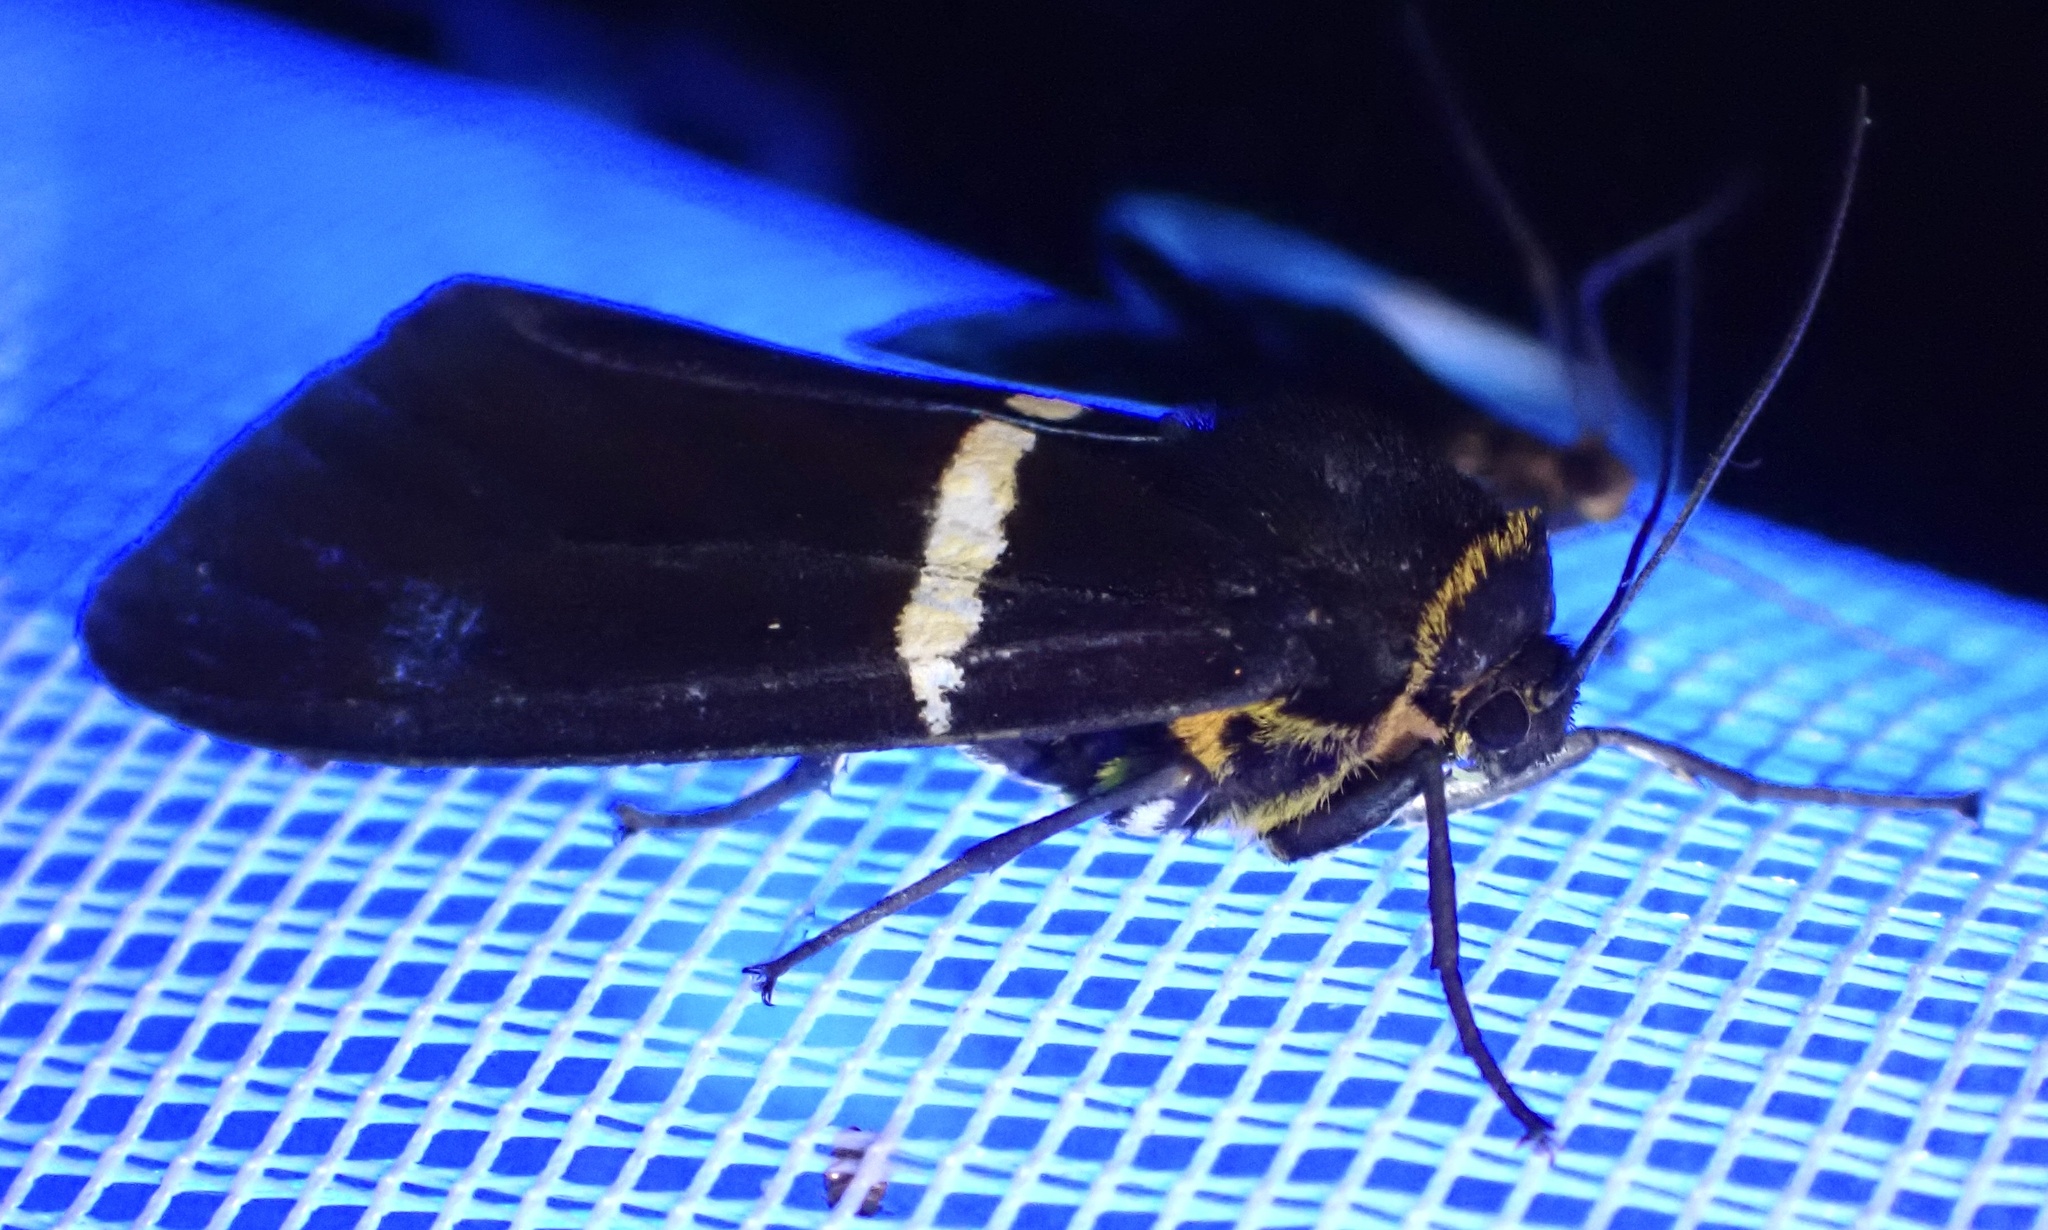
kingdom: Animalia
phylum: Arthropoda
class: Insecta
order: Lepidoptera
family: Erebidae
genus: Spilosoma
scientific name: Spilosoma
